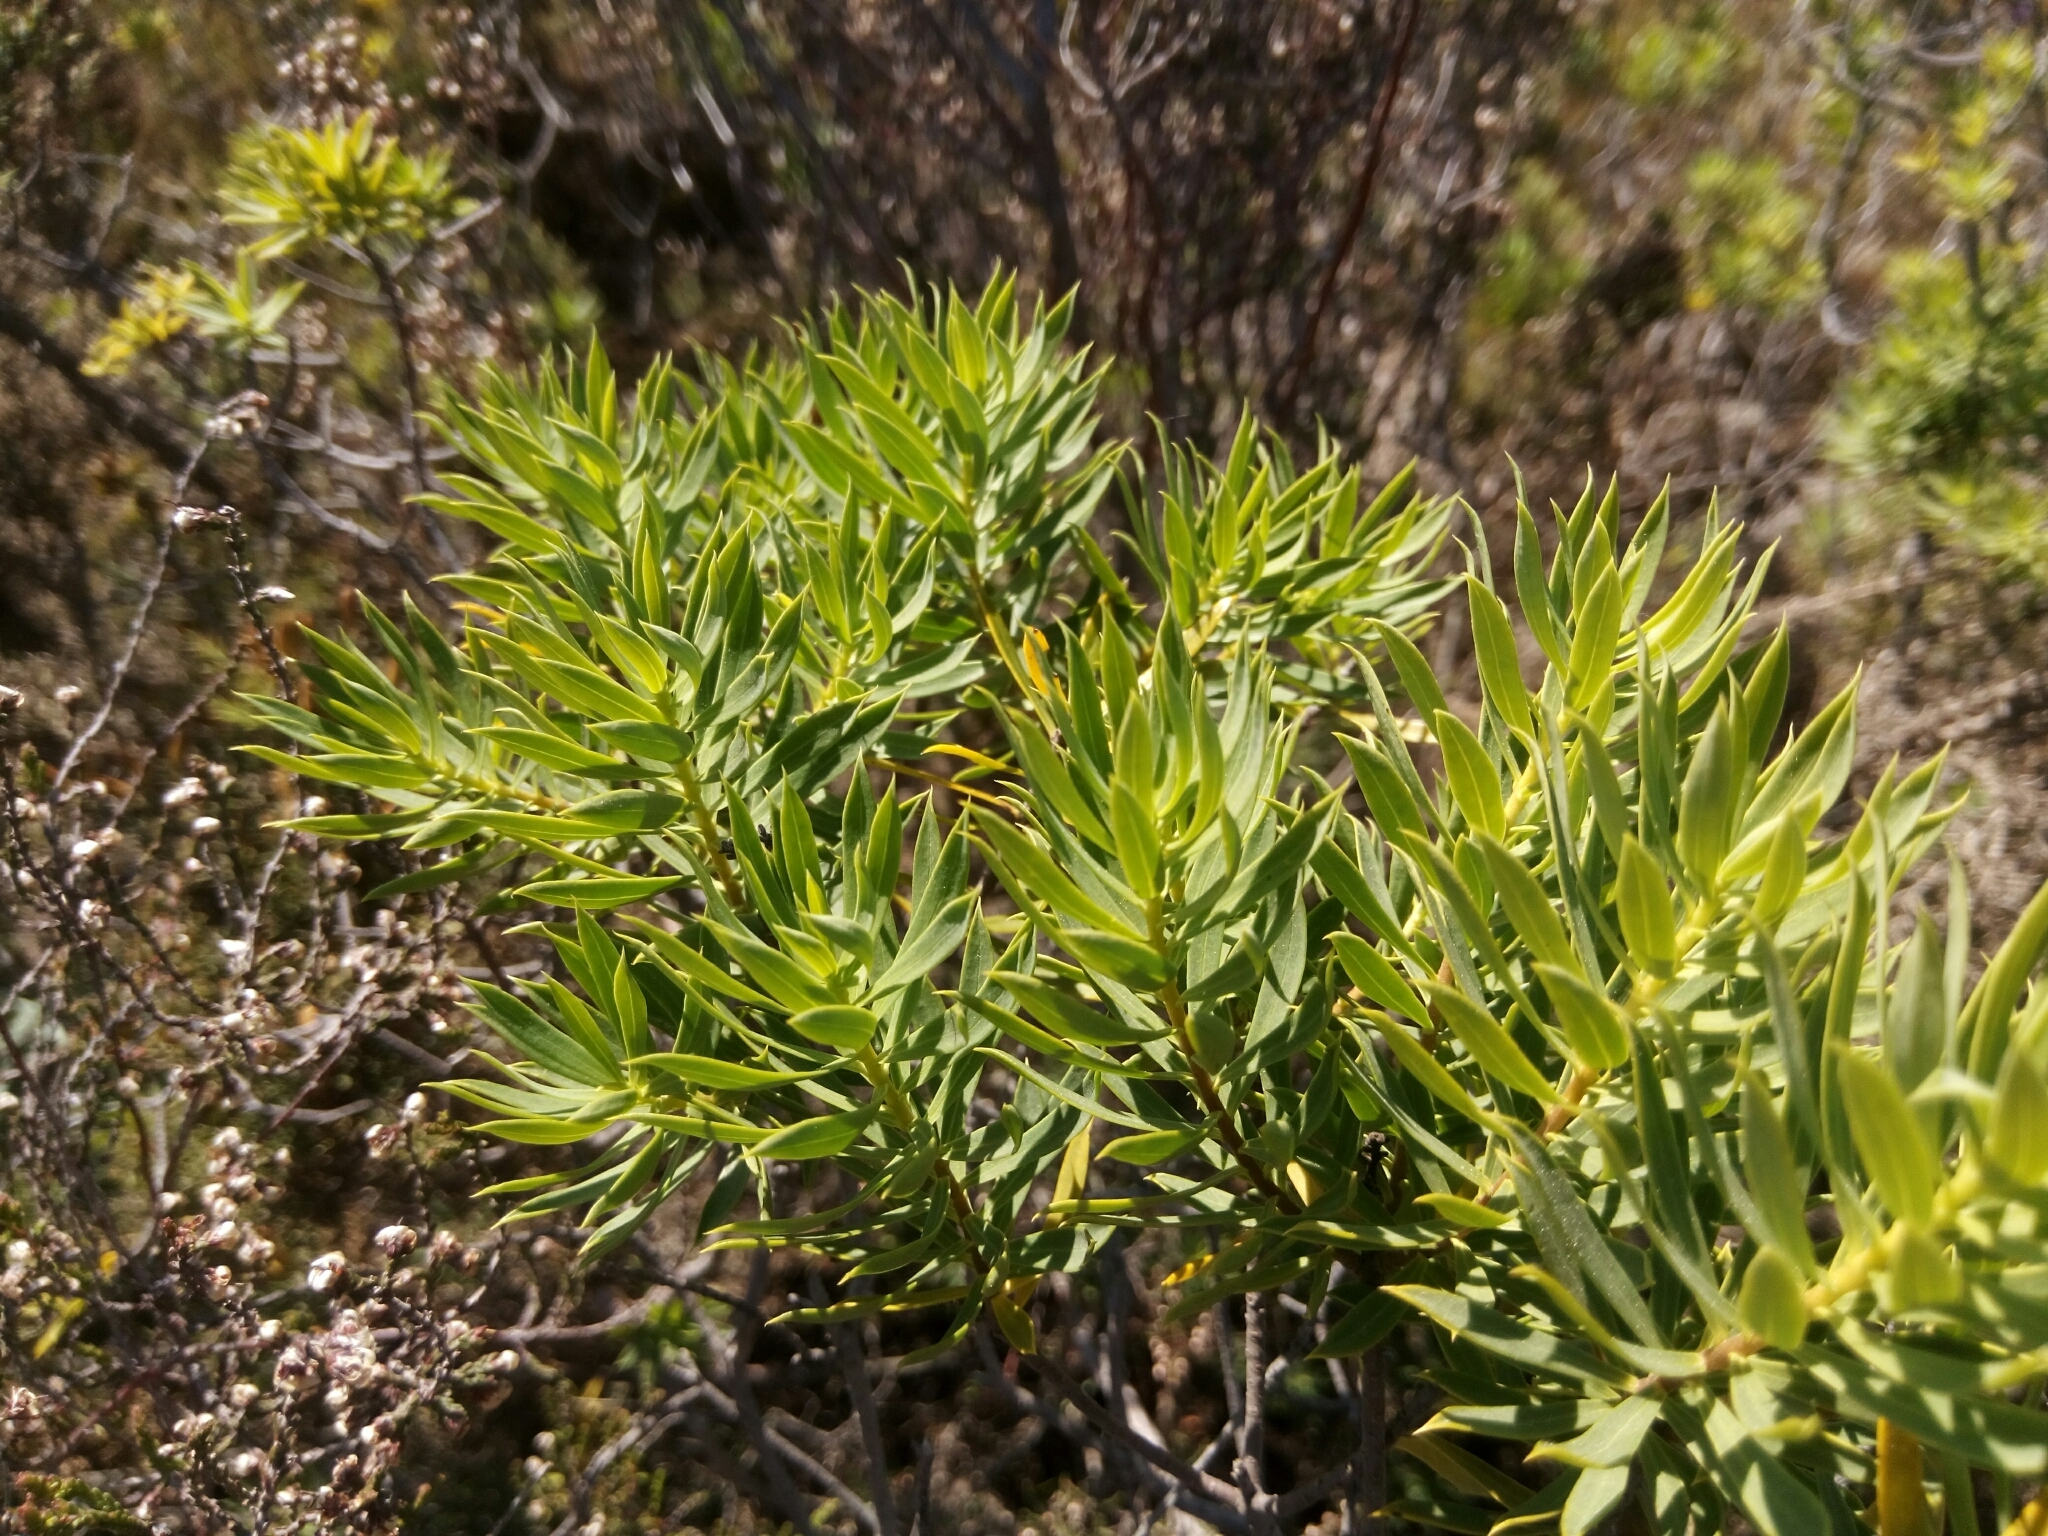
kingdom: Plantae
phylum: Tracheophyta
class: Magnoliopsida
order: Malvales
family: Thymelaeaceae
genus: Daphne
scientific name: Daphne gnidium
